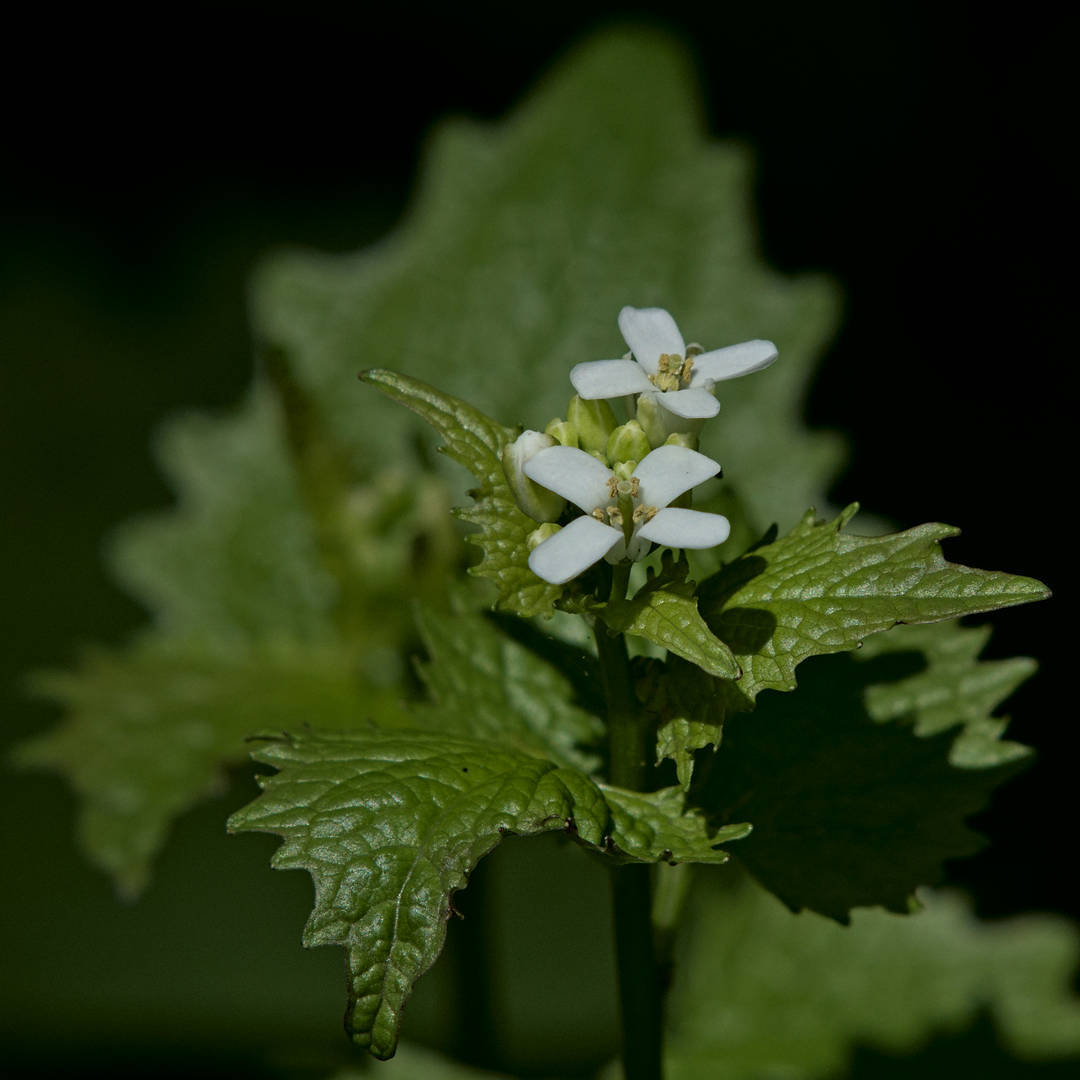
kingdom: Plantae
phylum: Tracheophyta
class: Magnoliopsida
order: Brassicales
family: Brassicaceae
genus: Alliaria
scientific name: Alliaria petiolata
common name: Garlic mustard
